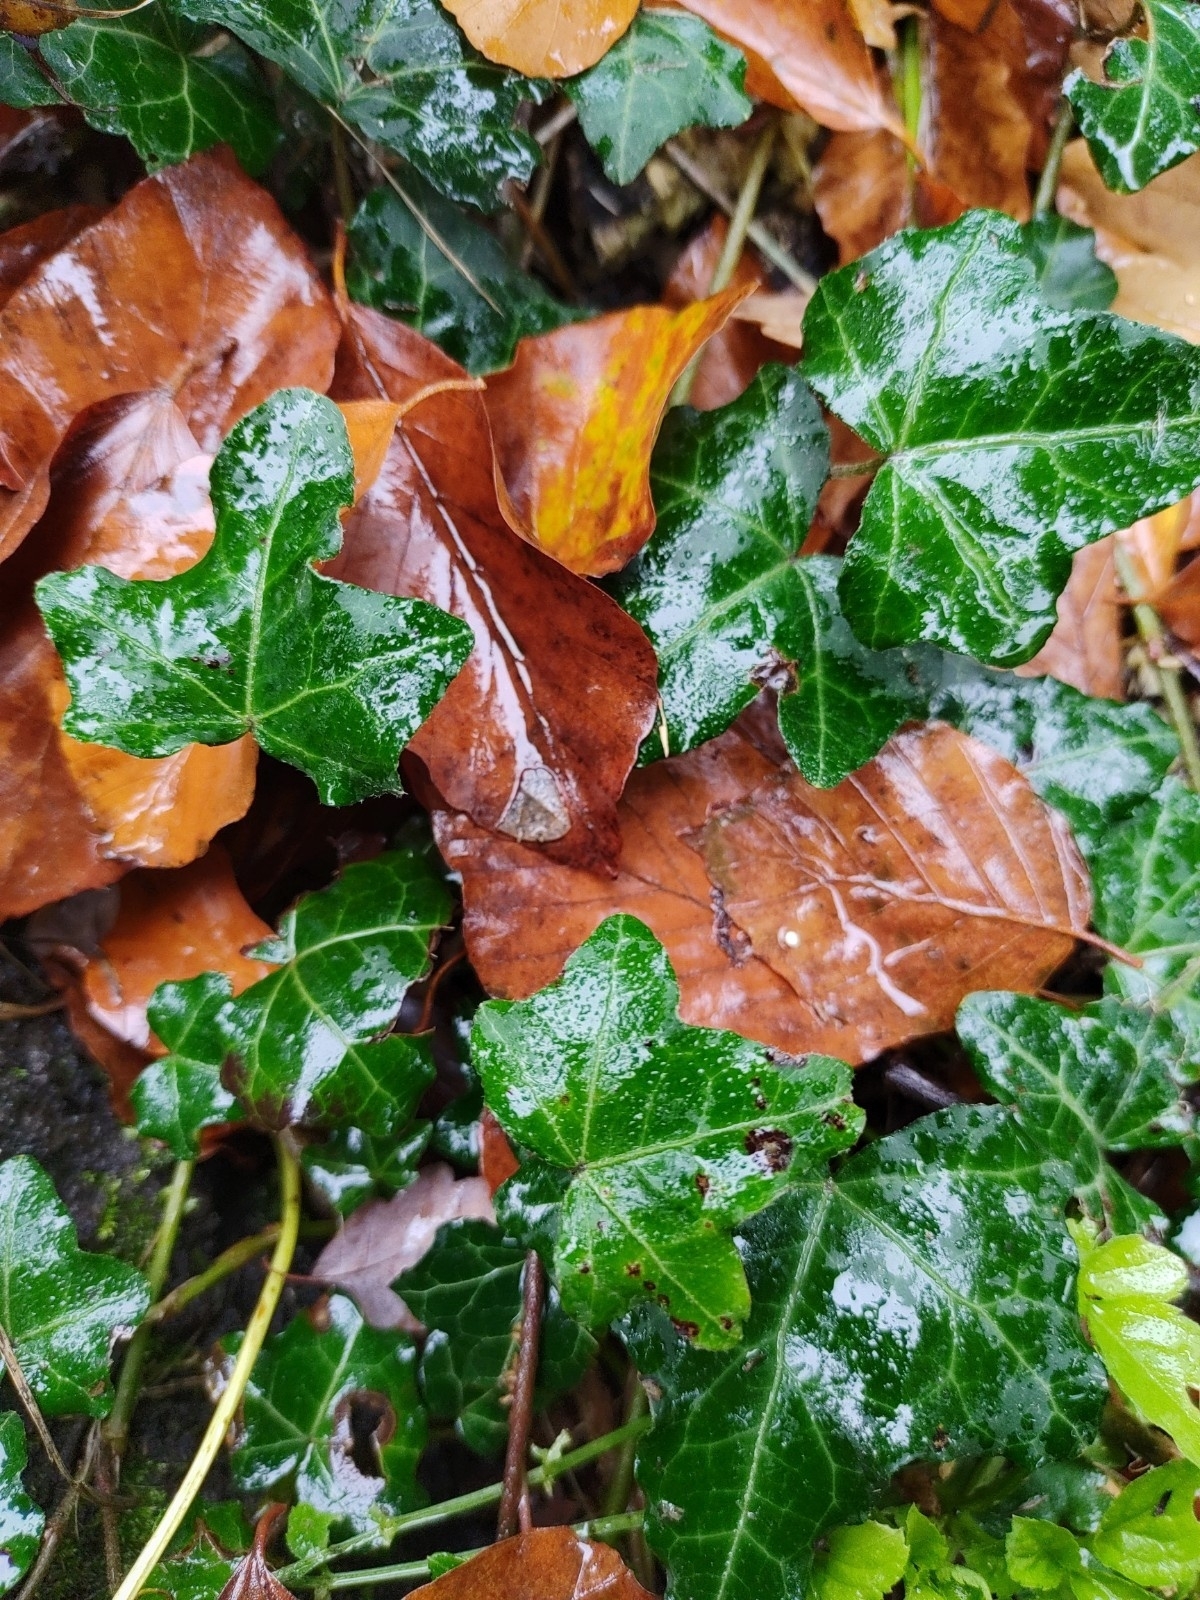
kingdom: Plantae
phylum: Tracheophyta
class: Magnoliopsida
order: Apiales
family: Araliaceae
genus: Hedera
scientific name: Hedera helix
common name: Ivy
